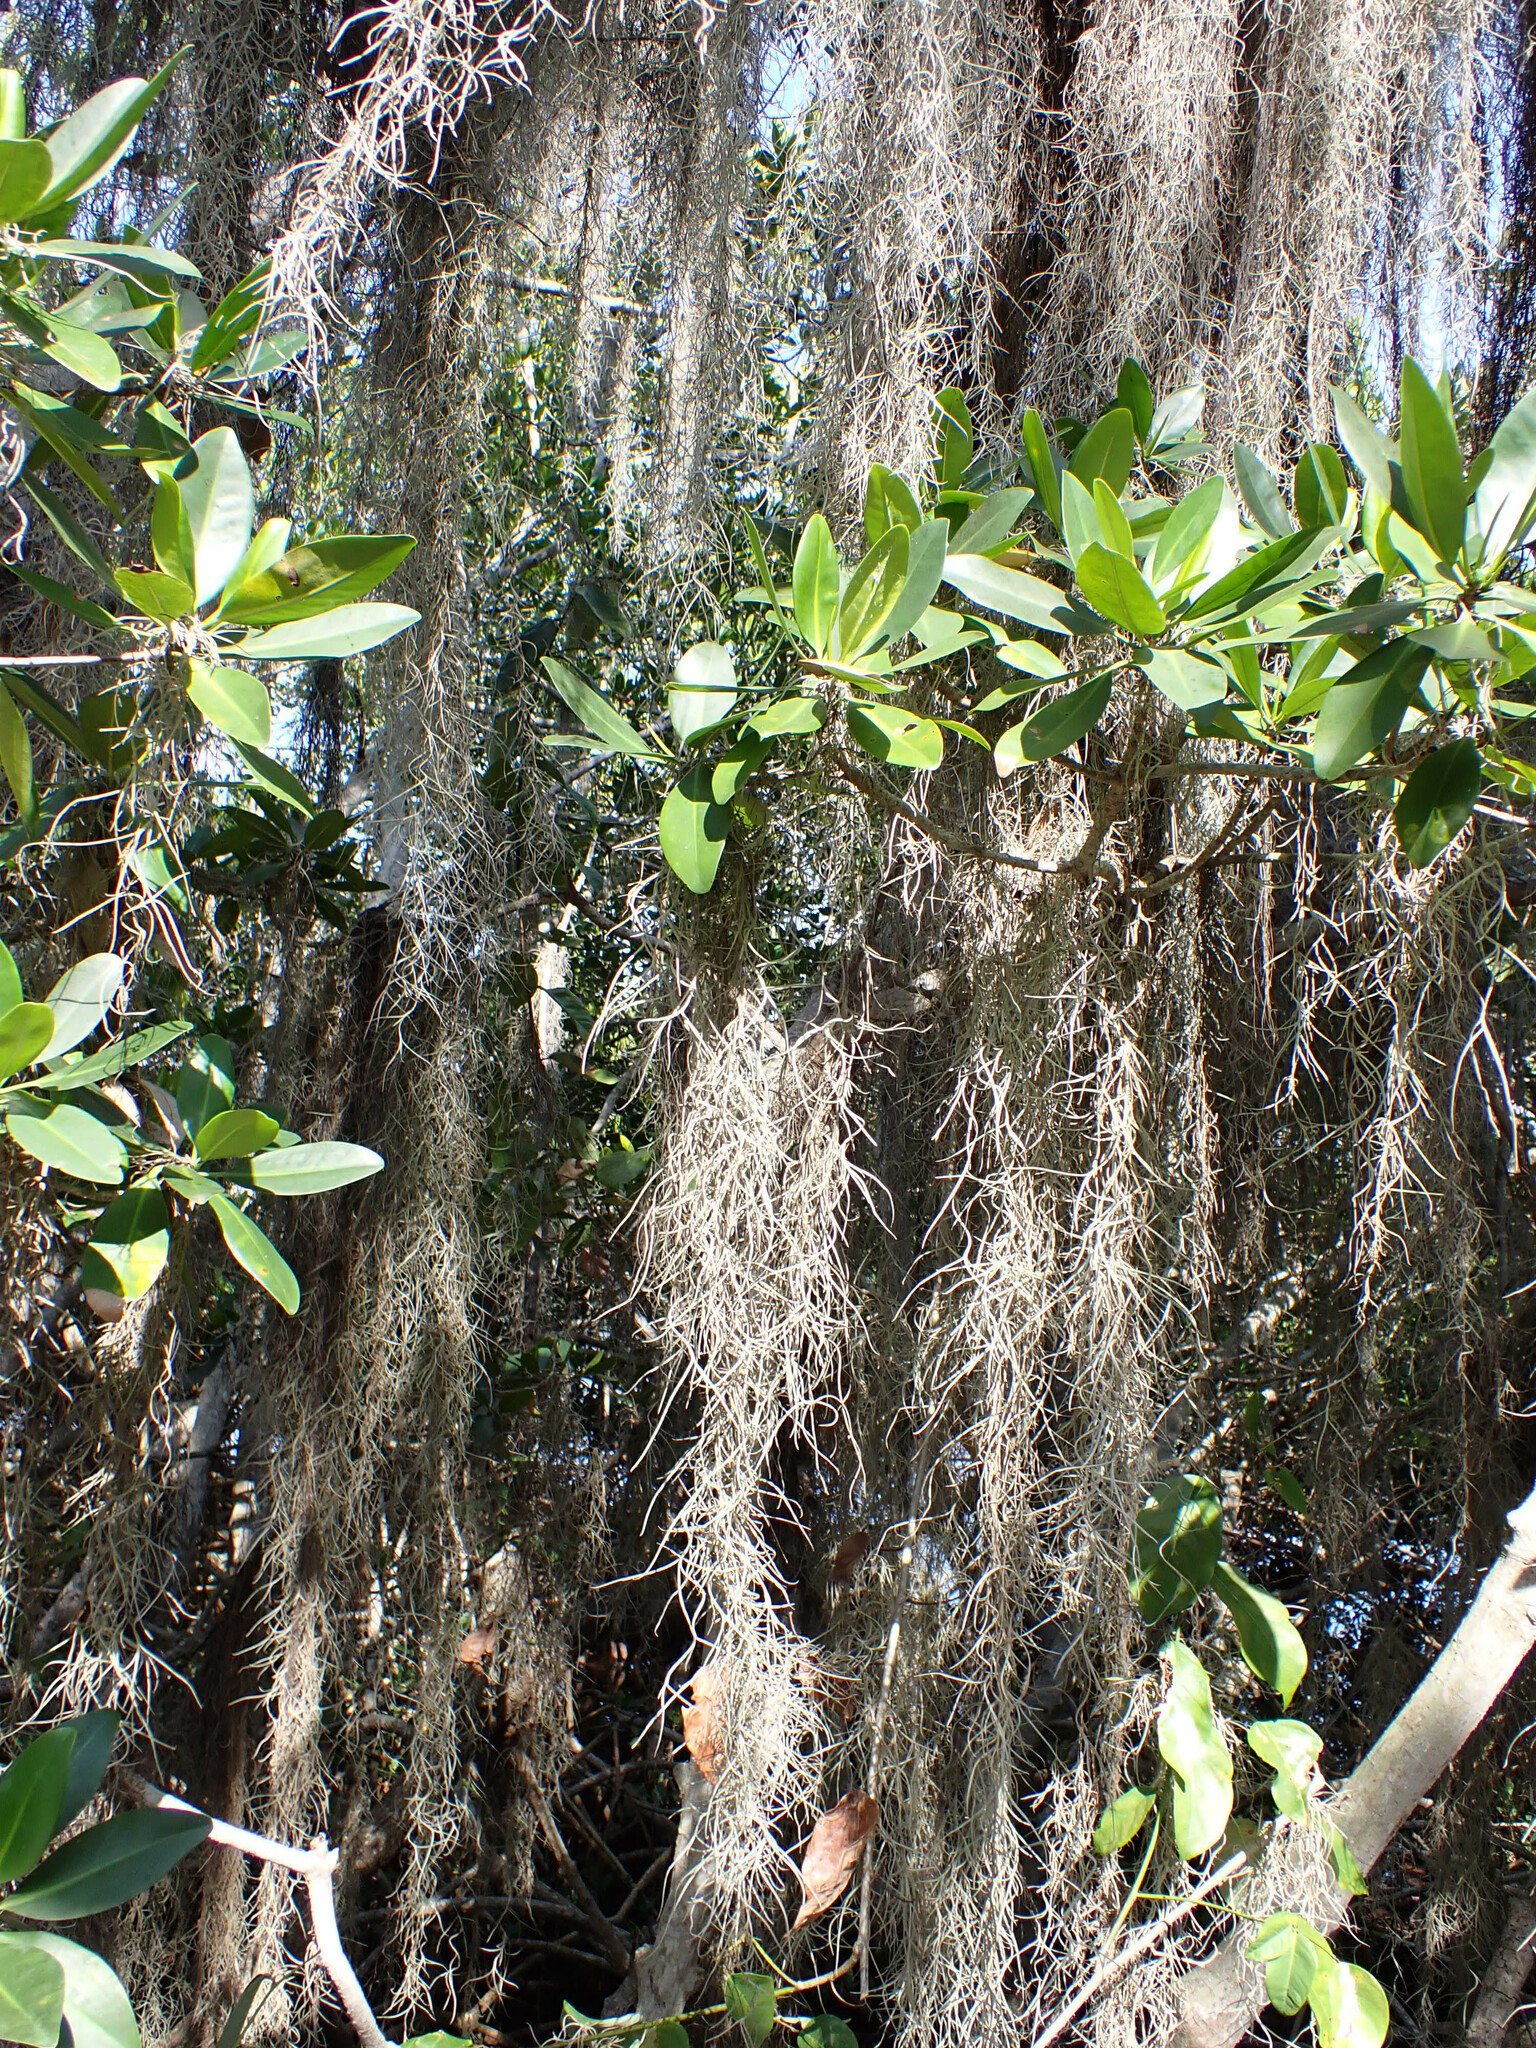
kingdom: Plantae
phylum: Tracheophyta
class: Liliopsida
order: Poales
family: Bromeliaceae
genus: Tillandsia
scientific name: Tillandsia usneoides
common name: Spanish moss
